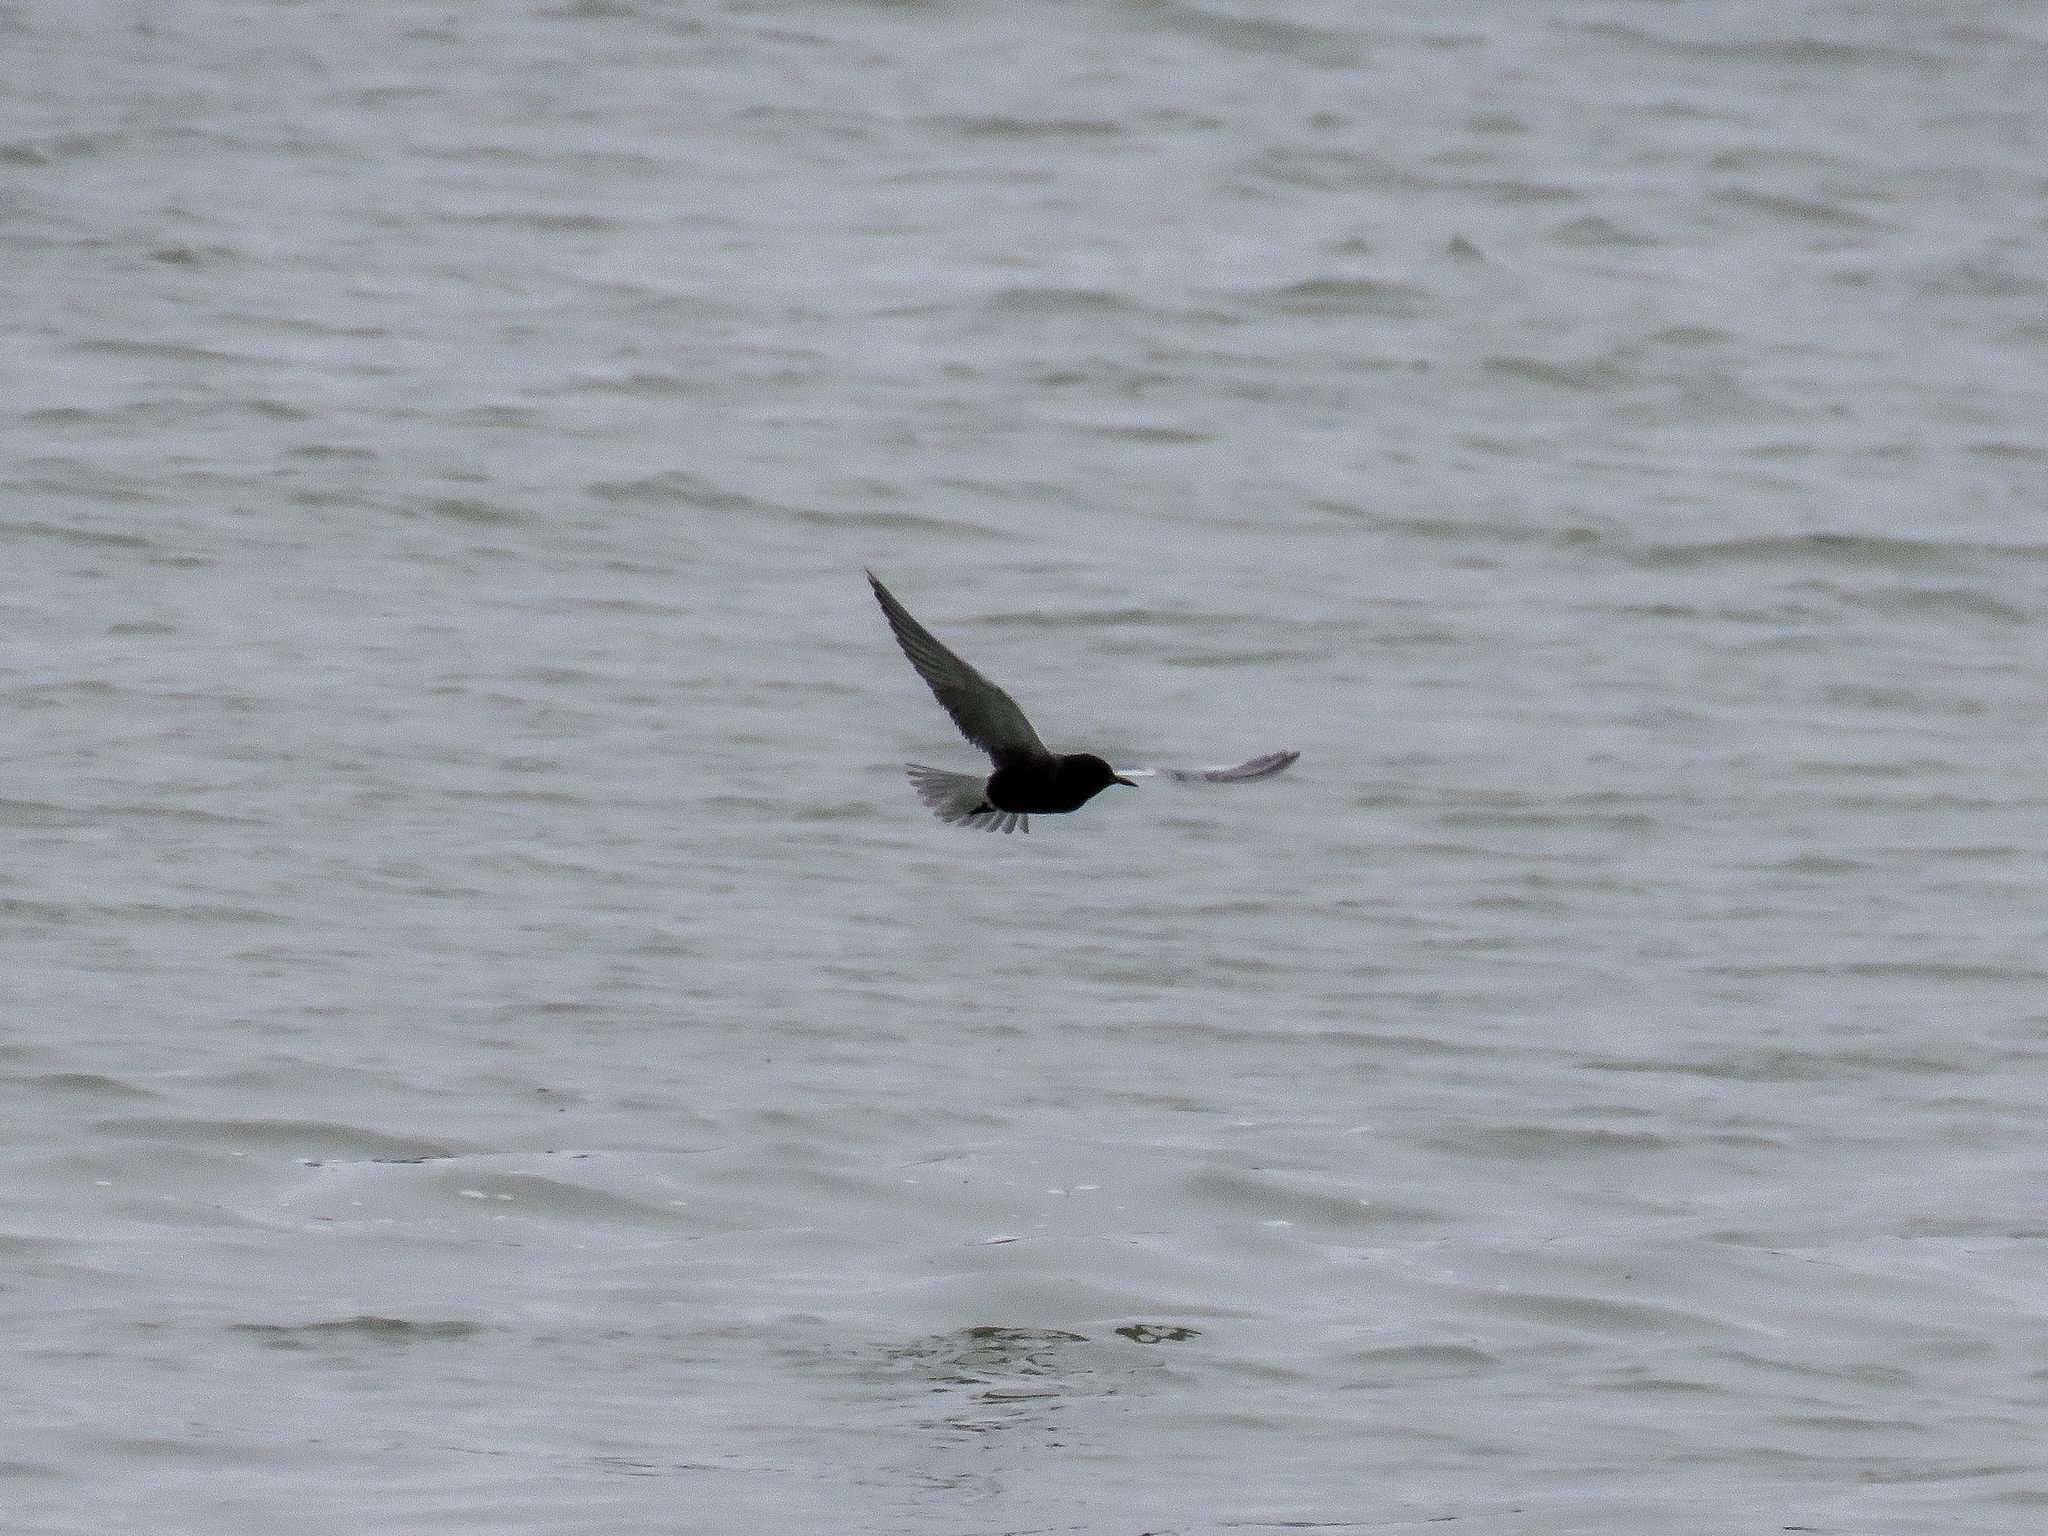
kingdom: Animalia
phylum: Chordata
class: Aves
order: Charadriiformes
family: Laridae
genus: Chlidonias
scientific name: Chlidonias niger
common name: Black tern
